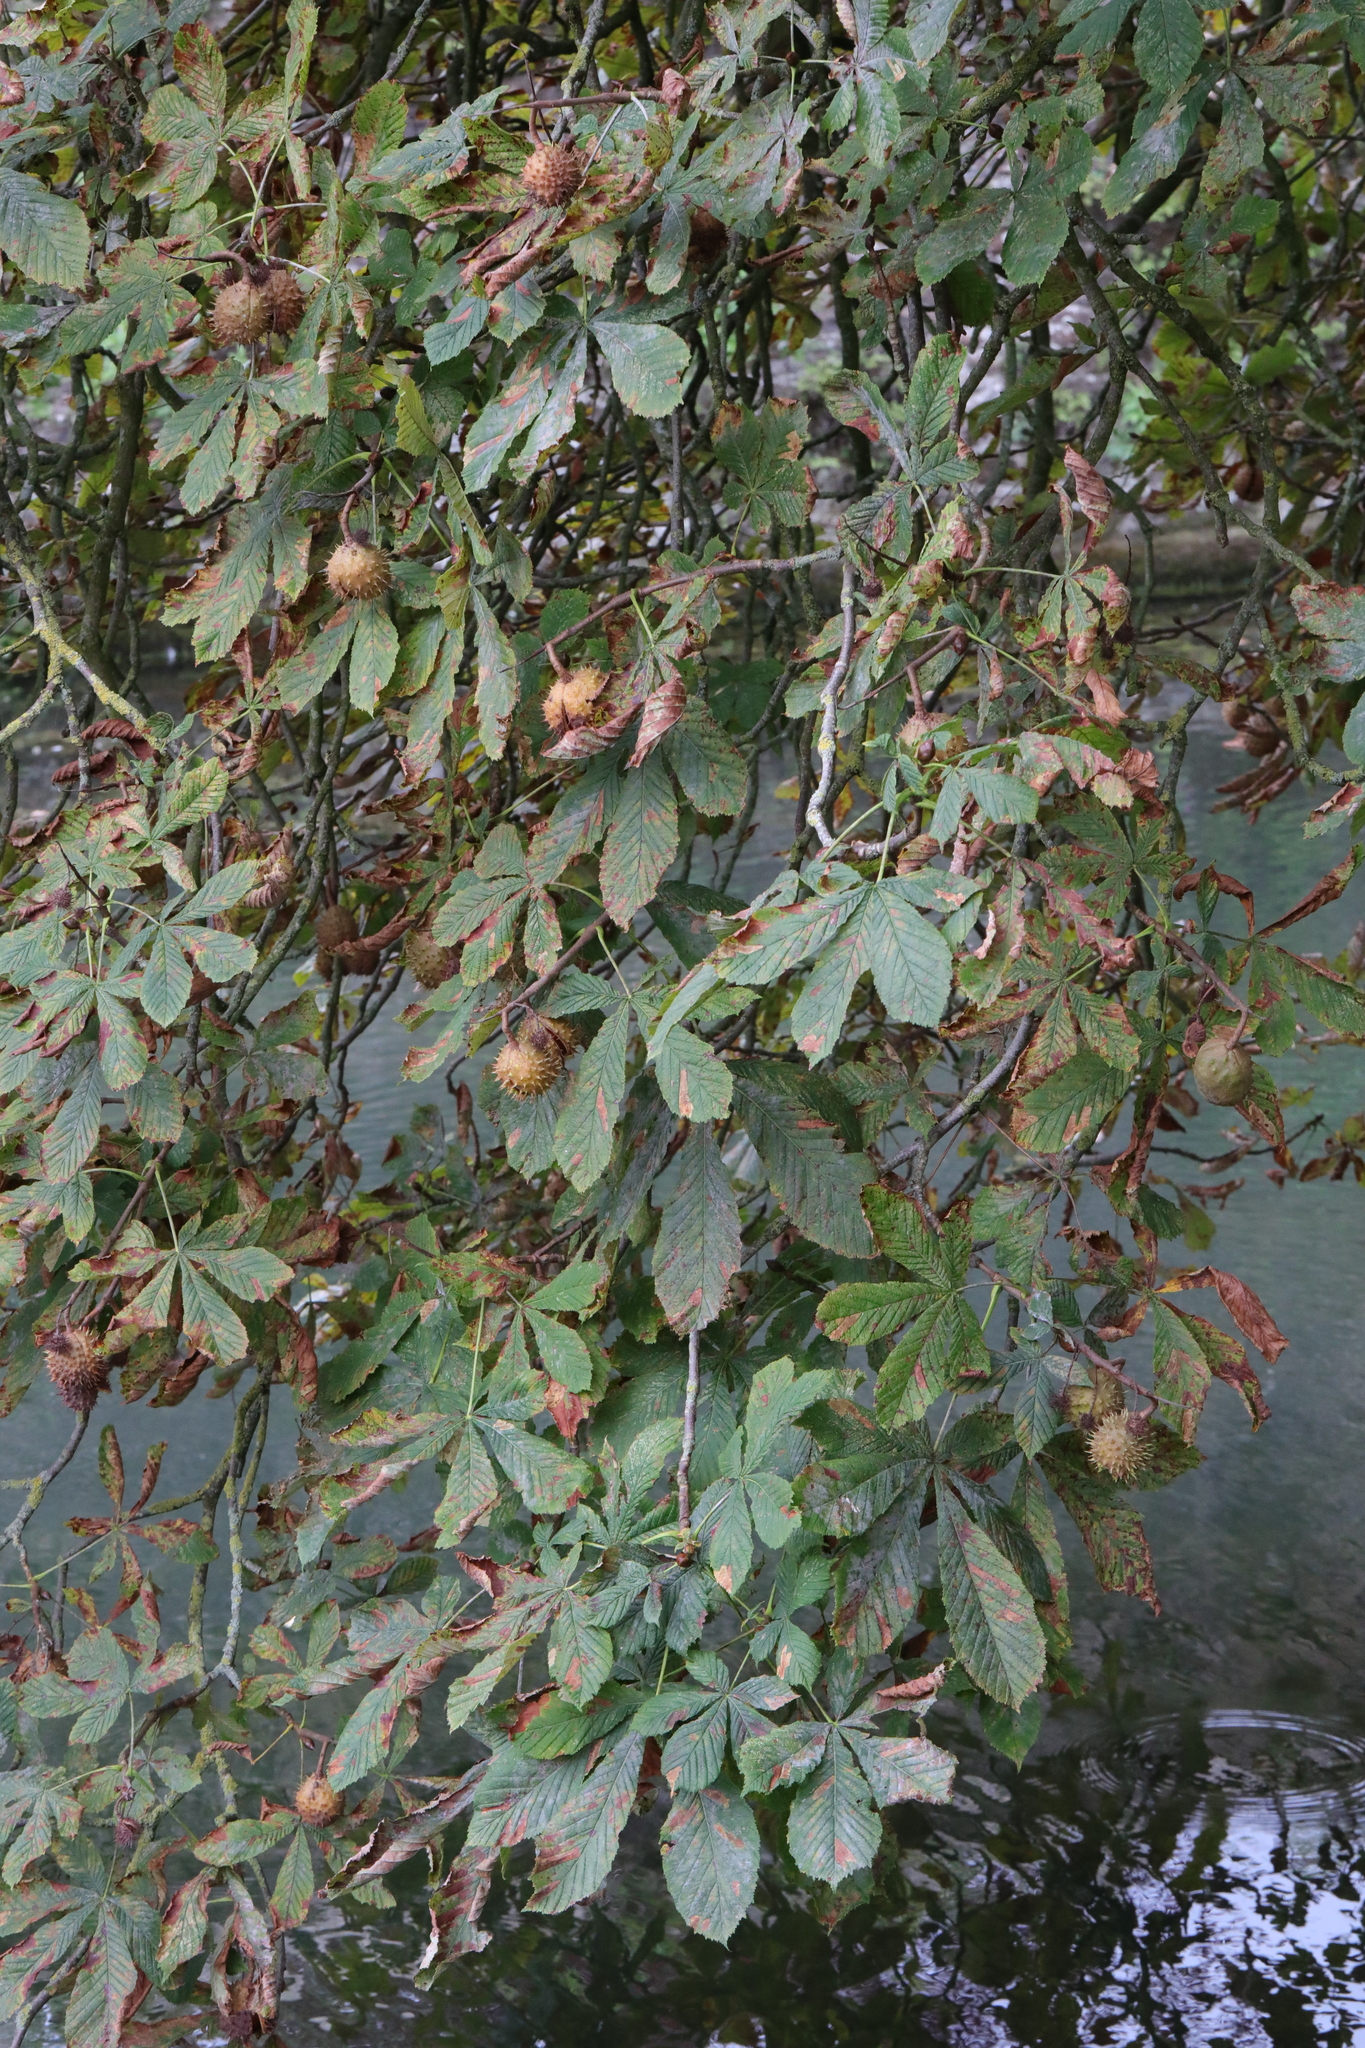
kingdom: Plantae
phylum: Tracheophyta
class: Magnoliopsida
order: Sapindales
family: Sapindaceae
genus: Aesculus
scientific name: Aesculus hippocastanum
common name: Horse-chestnut
